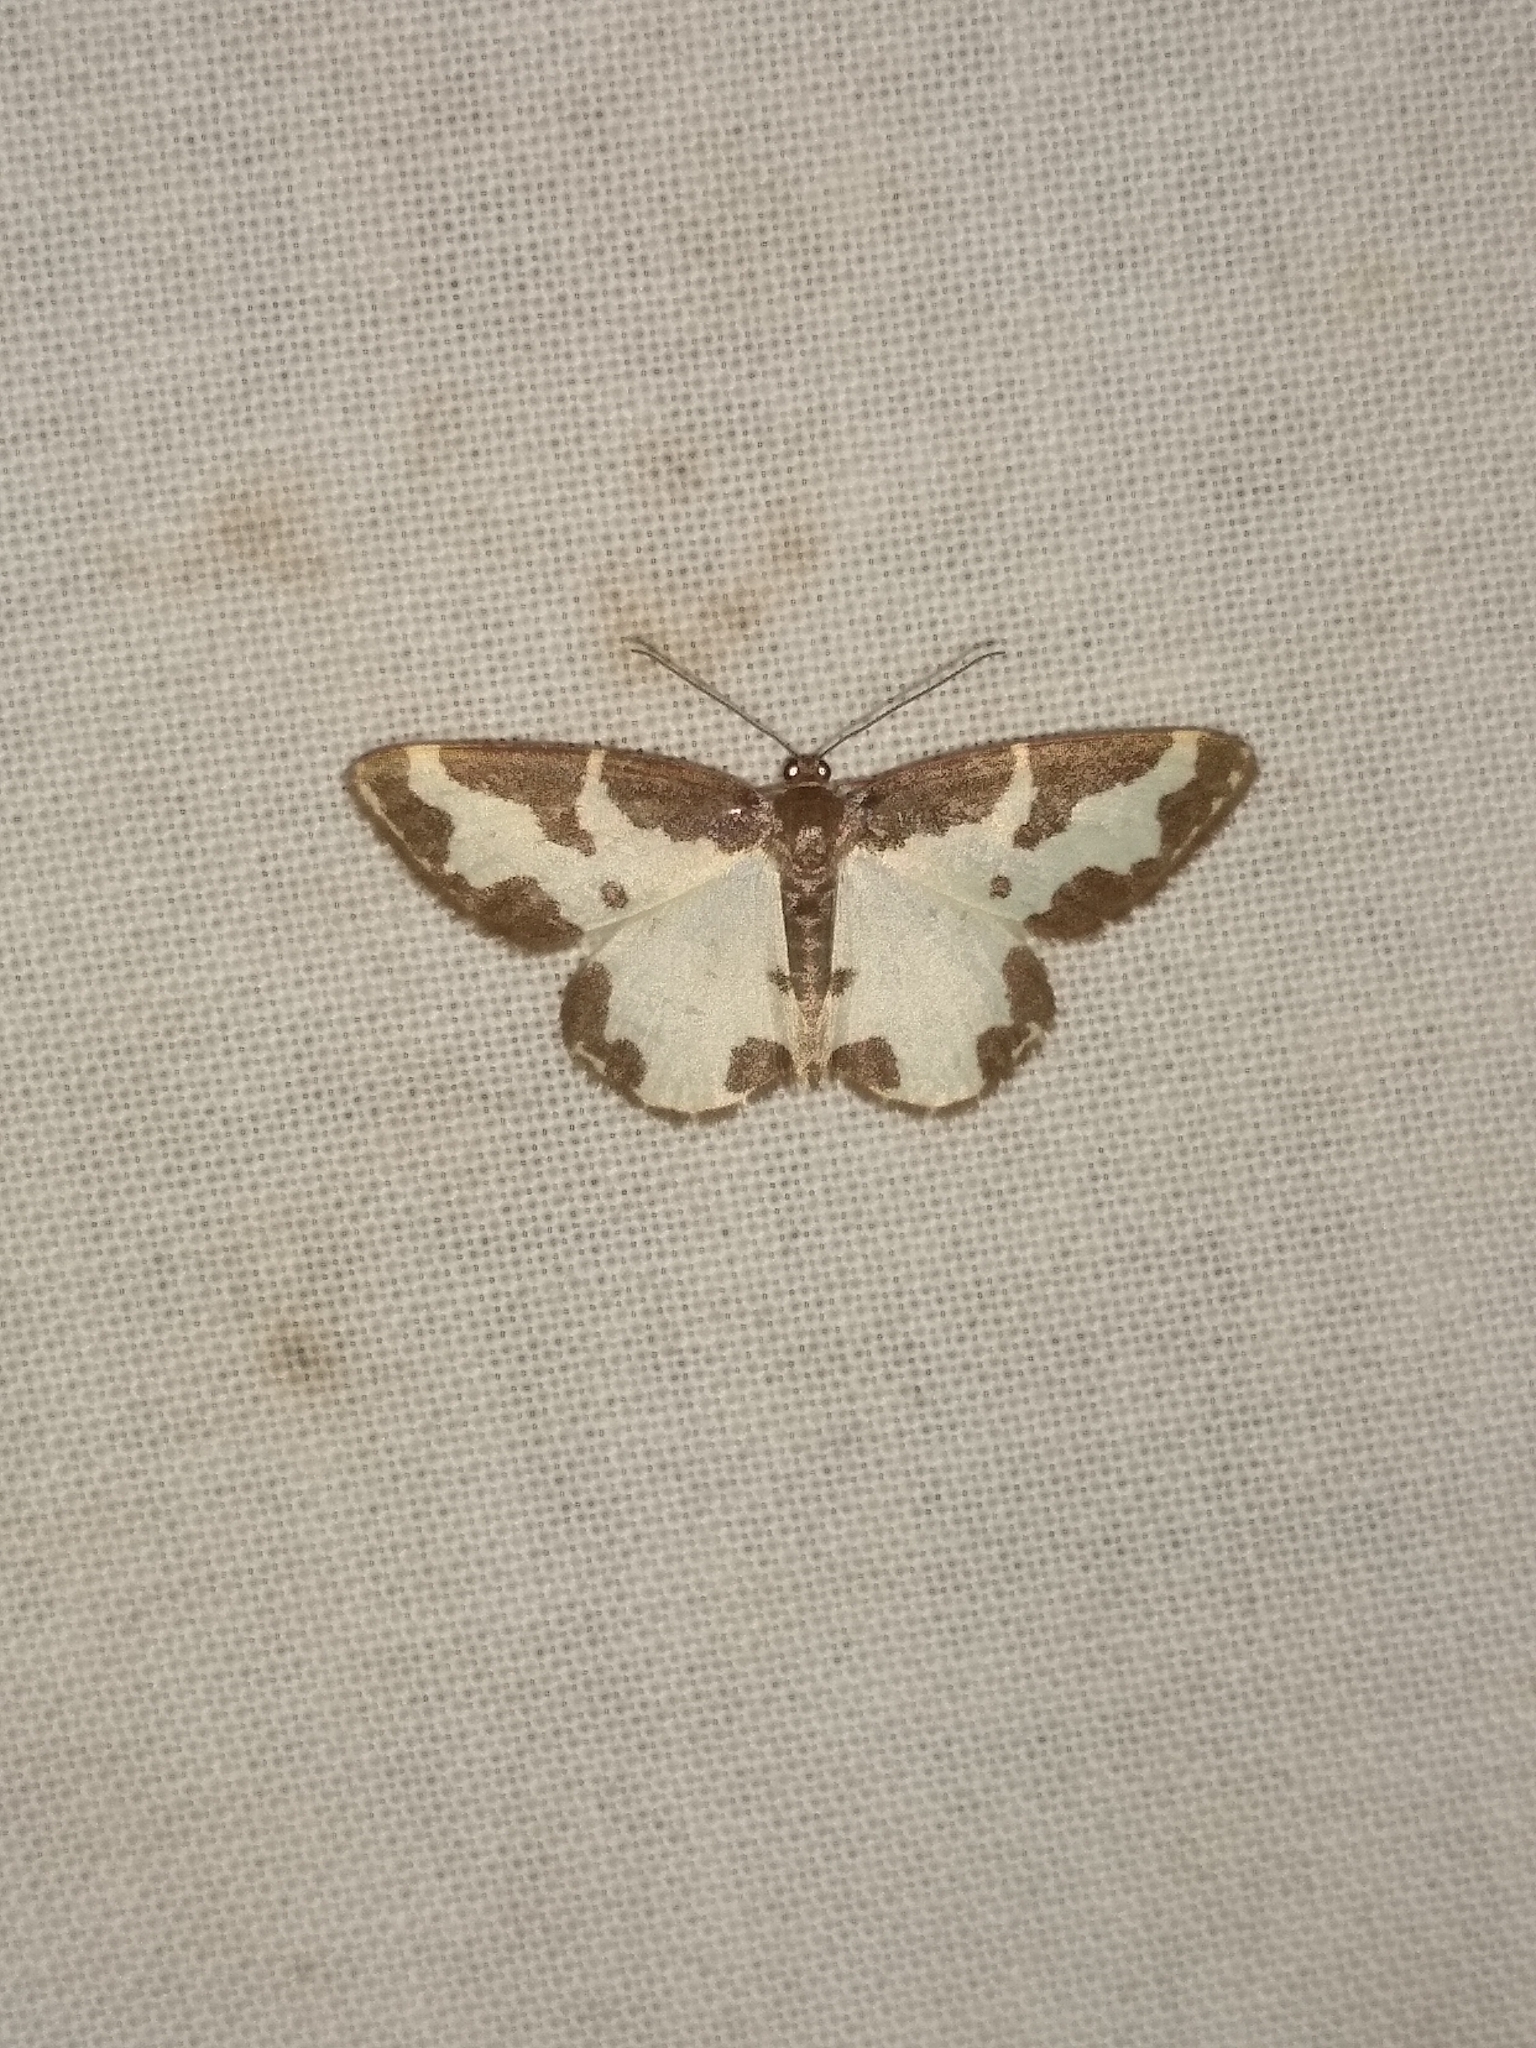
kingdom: Animalia
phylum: Arthropoda
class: Insecta
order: Lepidoptera
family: Geometridae
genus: Lomaspilis
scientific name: Lomaspilis marginata
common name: Clouded border
